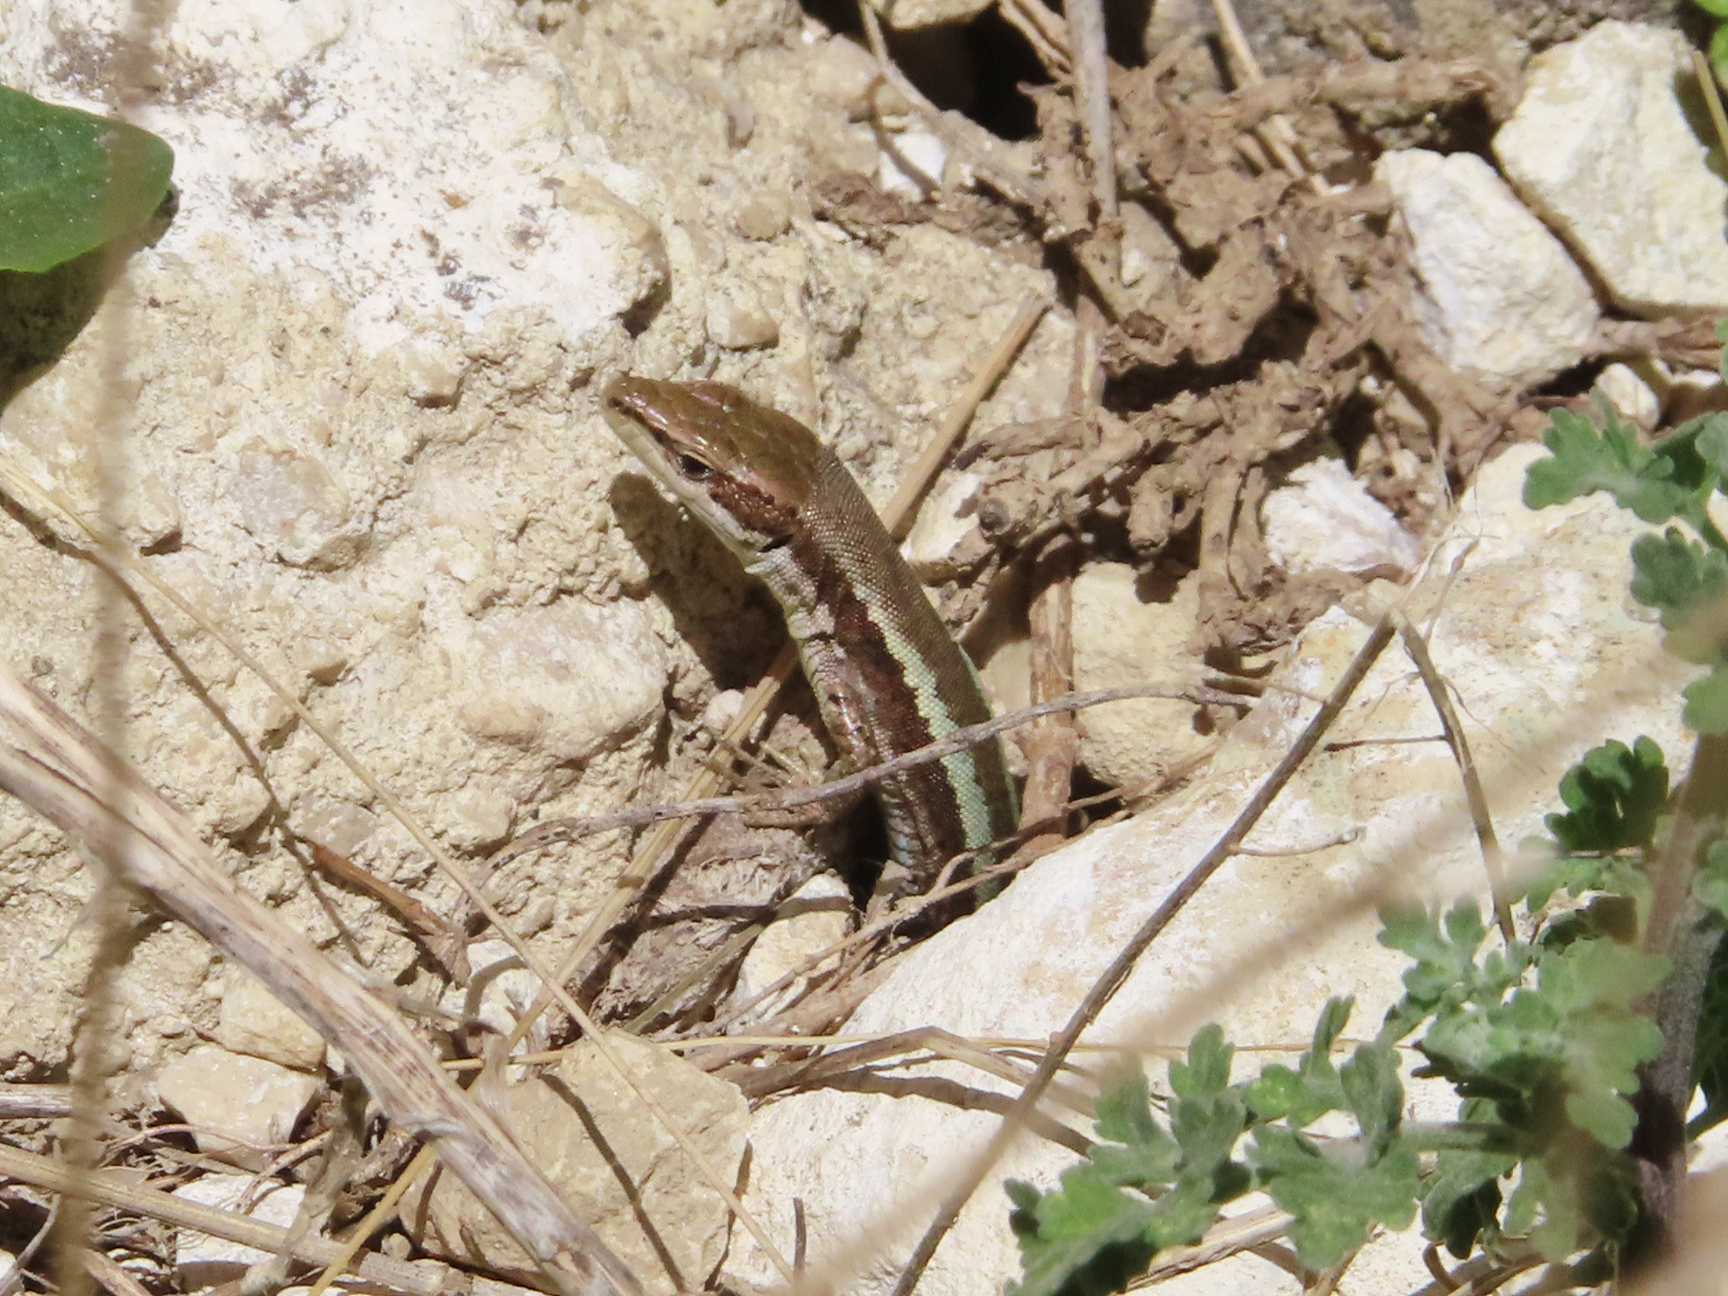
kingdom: Animalia
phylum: Chordata
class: Squamata
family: Lacertidae
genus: Darevskia
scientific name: Darevskia daghestanica
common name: Dagestan lizard
